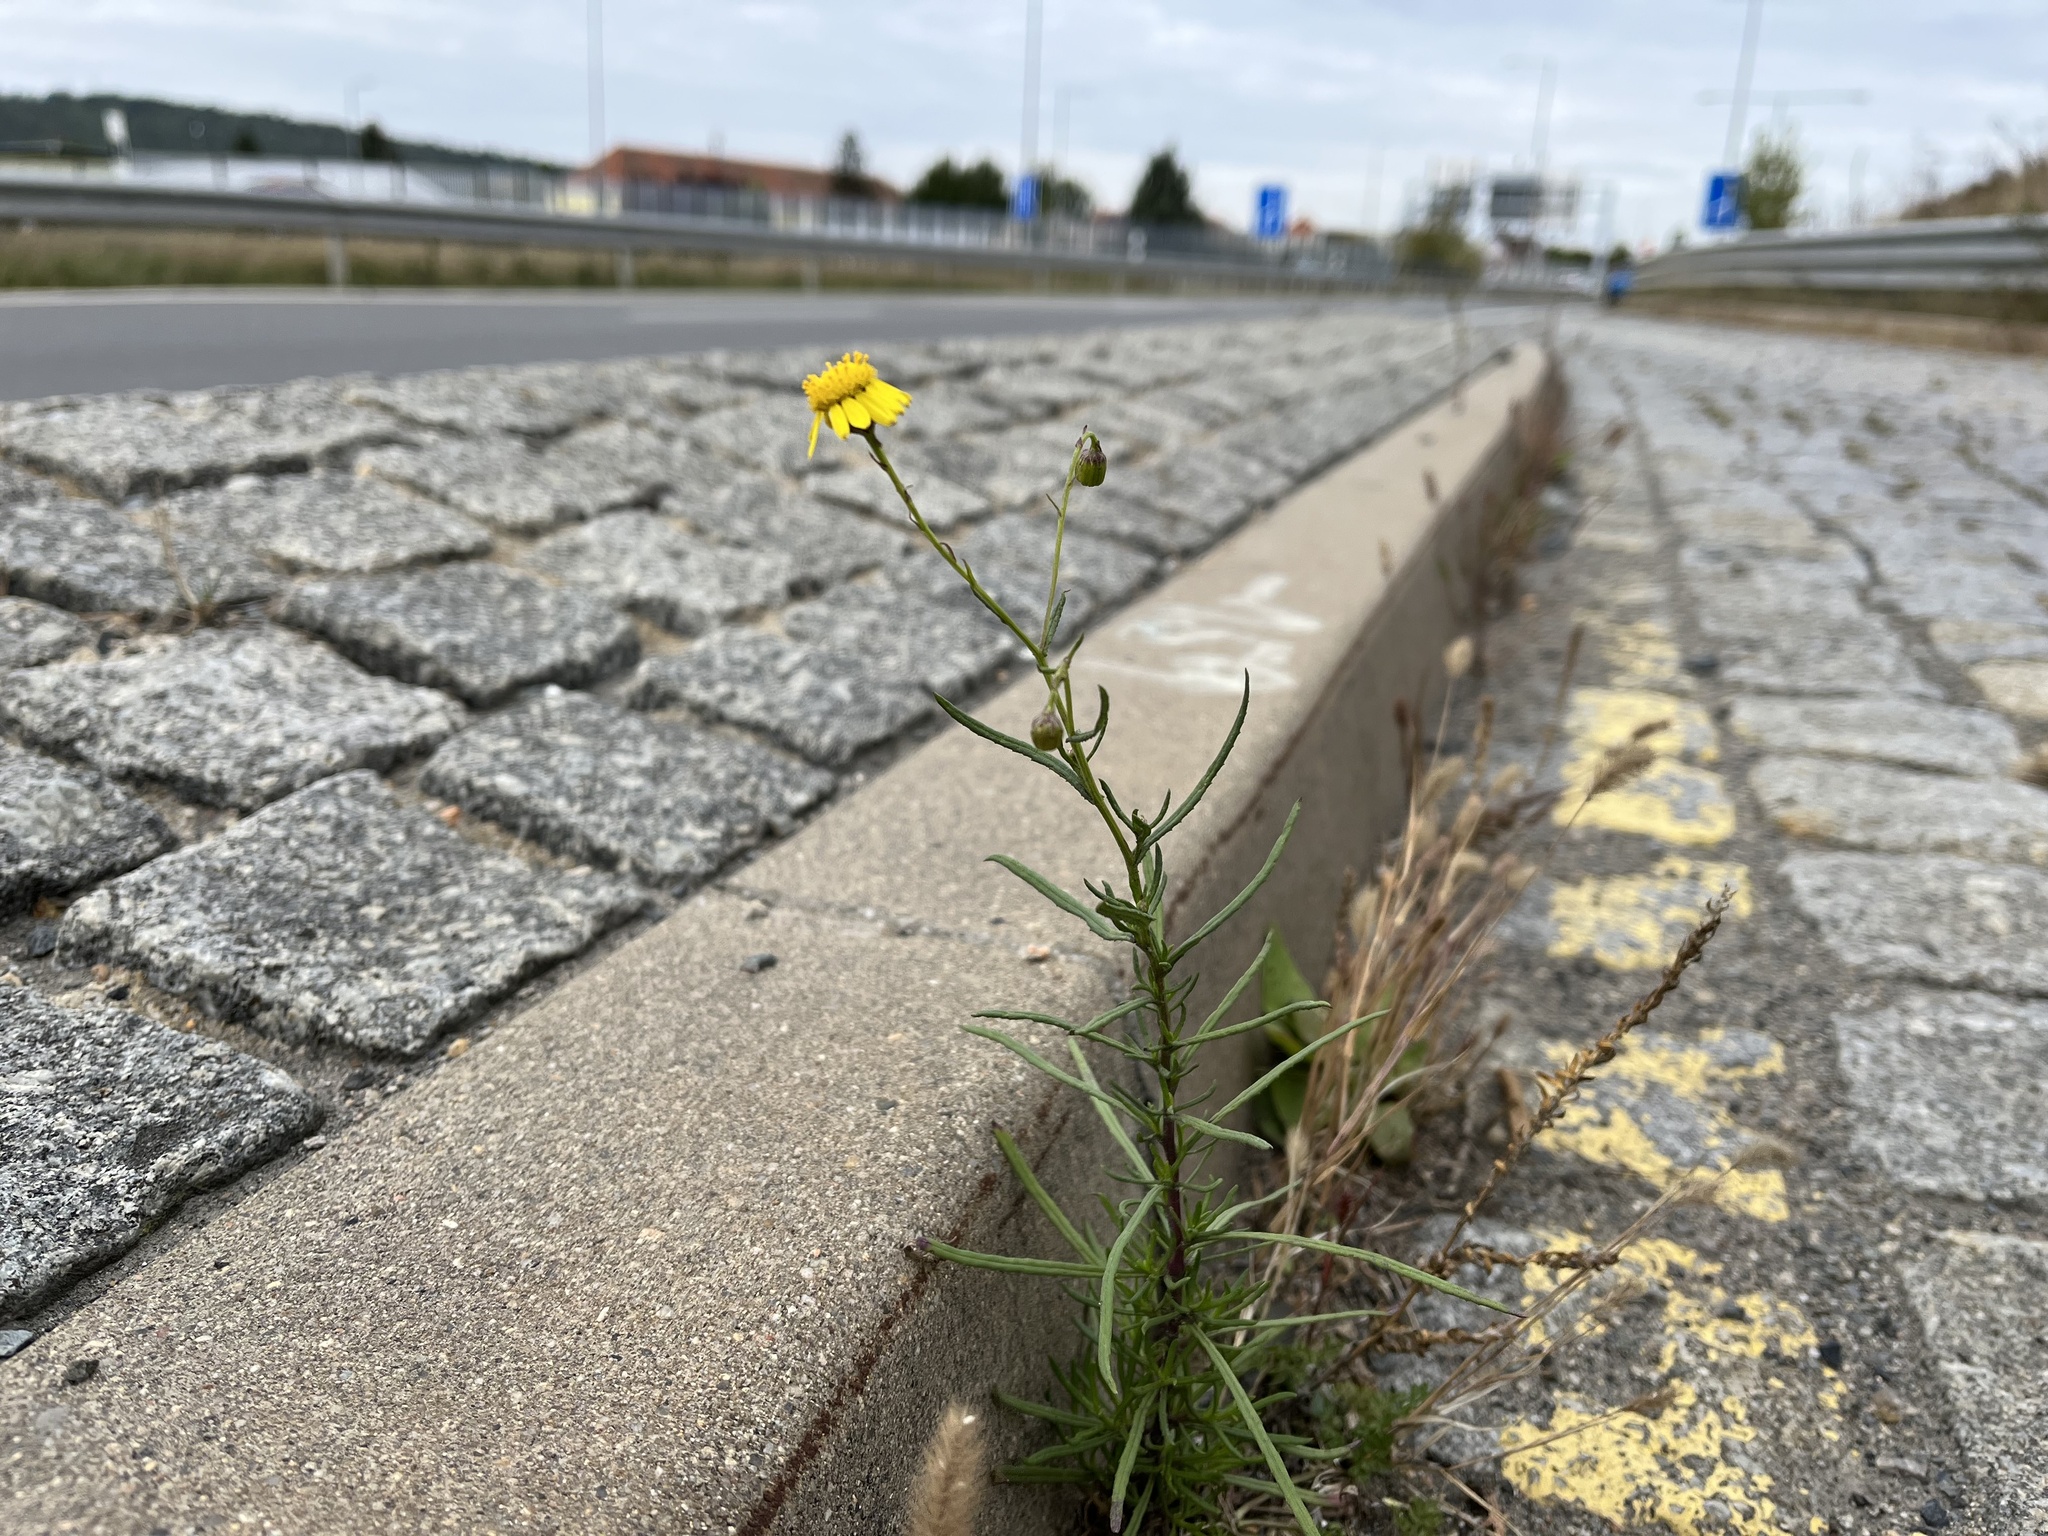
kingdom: Plantae
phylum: Tracheophyta
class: Magnoliopsida
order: Asterales
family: Asteraceae
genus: Senecio
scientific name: Senecio inaequidens
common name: Narrow-leaved ragwort
